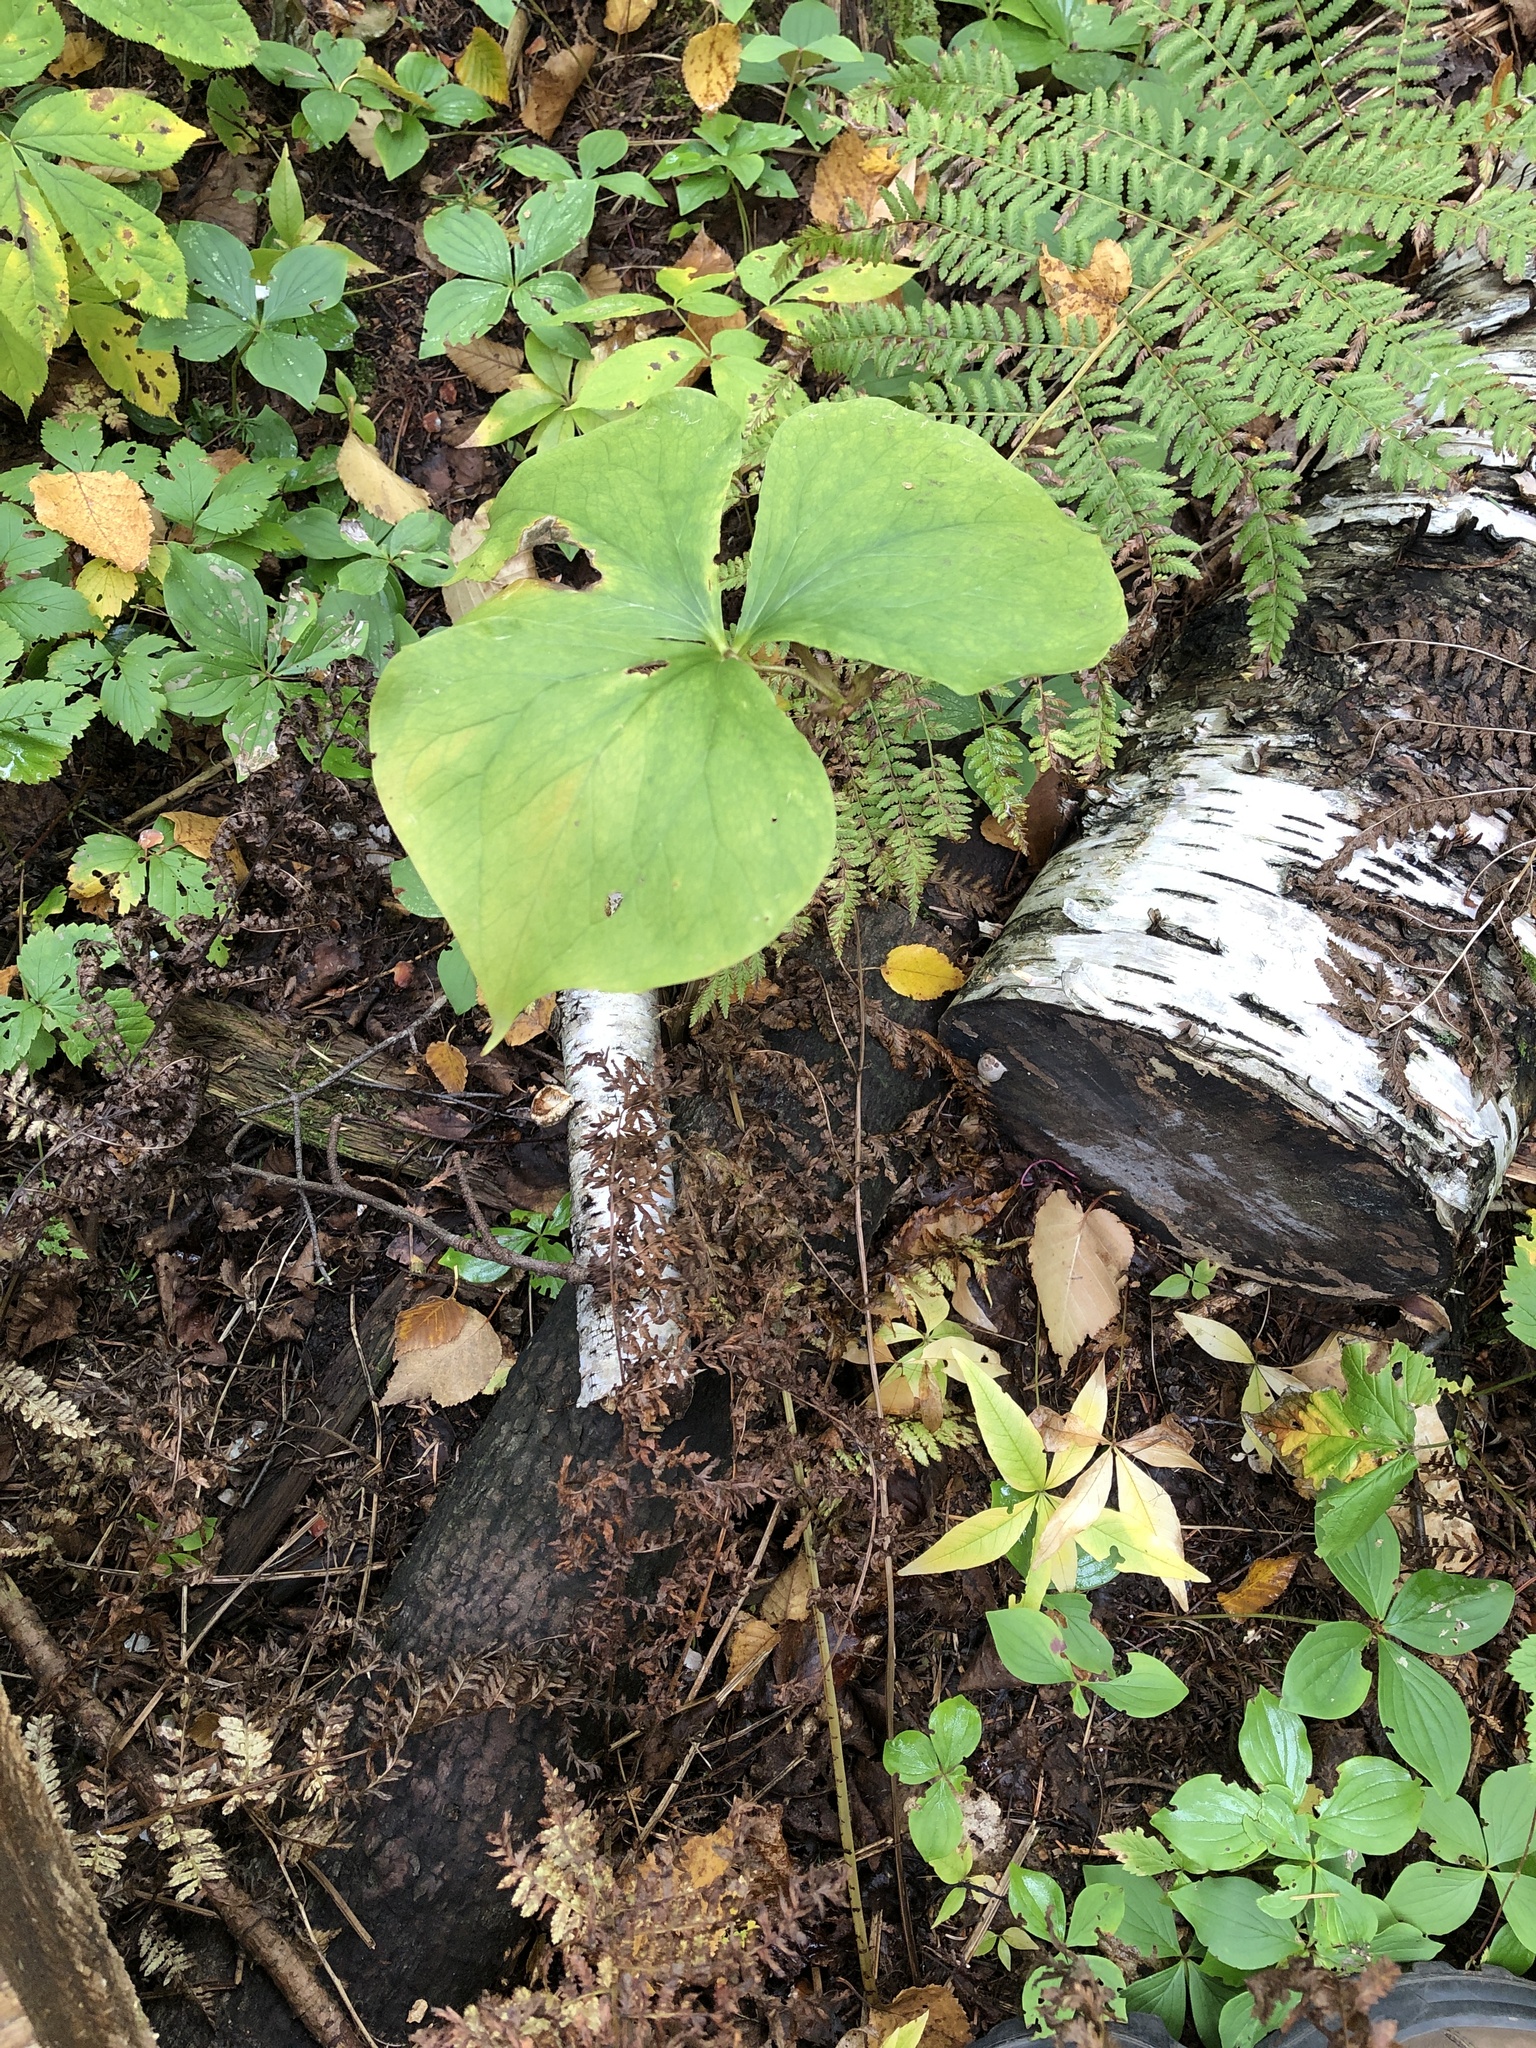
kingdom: Plantae
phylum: Tracheophyta
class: Liliopsida
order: Liliales
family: Melanthiaceae
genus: Trillium
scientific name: Trillium cernuum
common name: Nodding trillium
